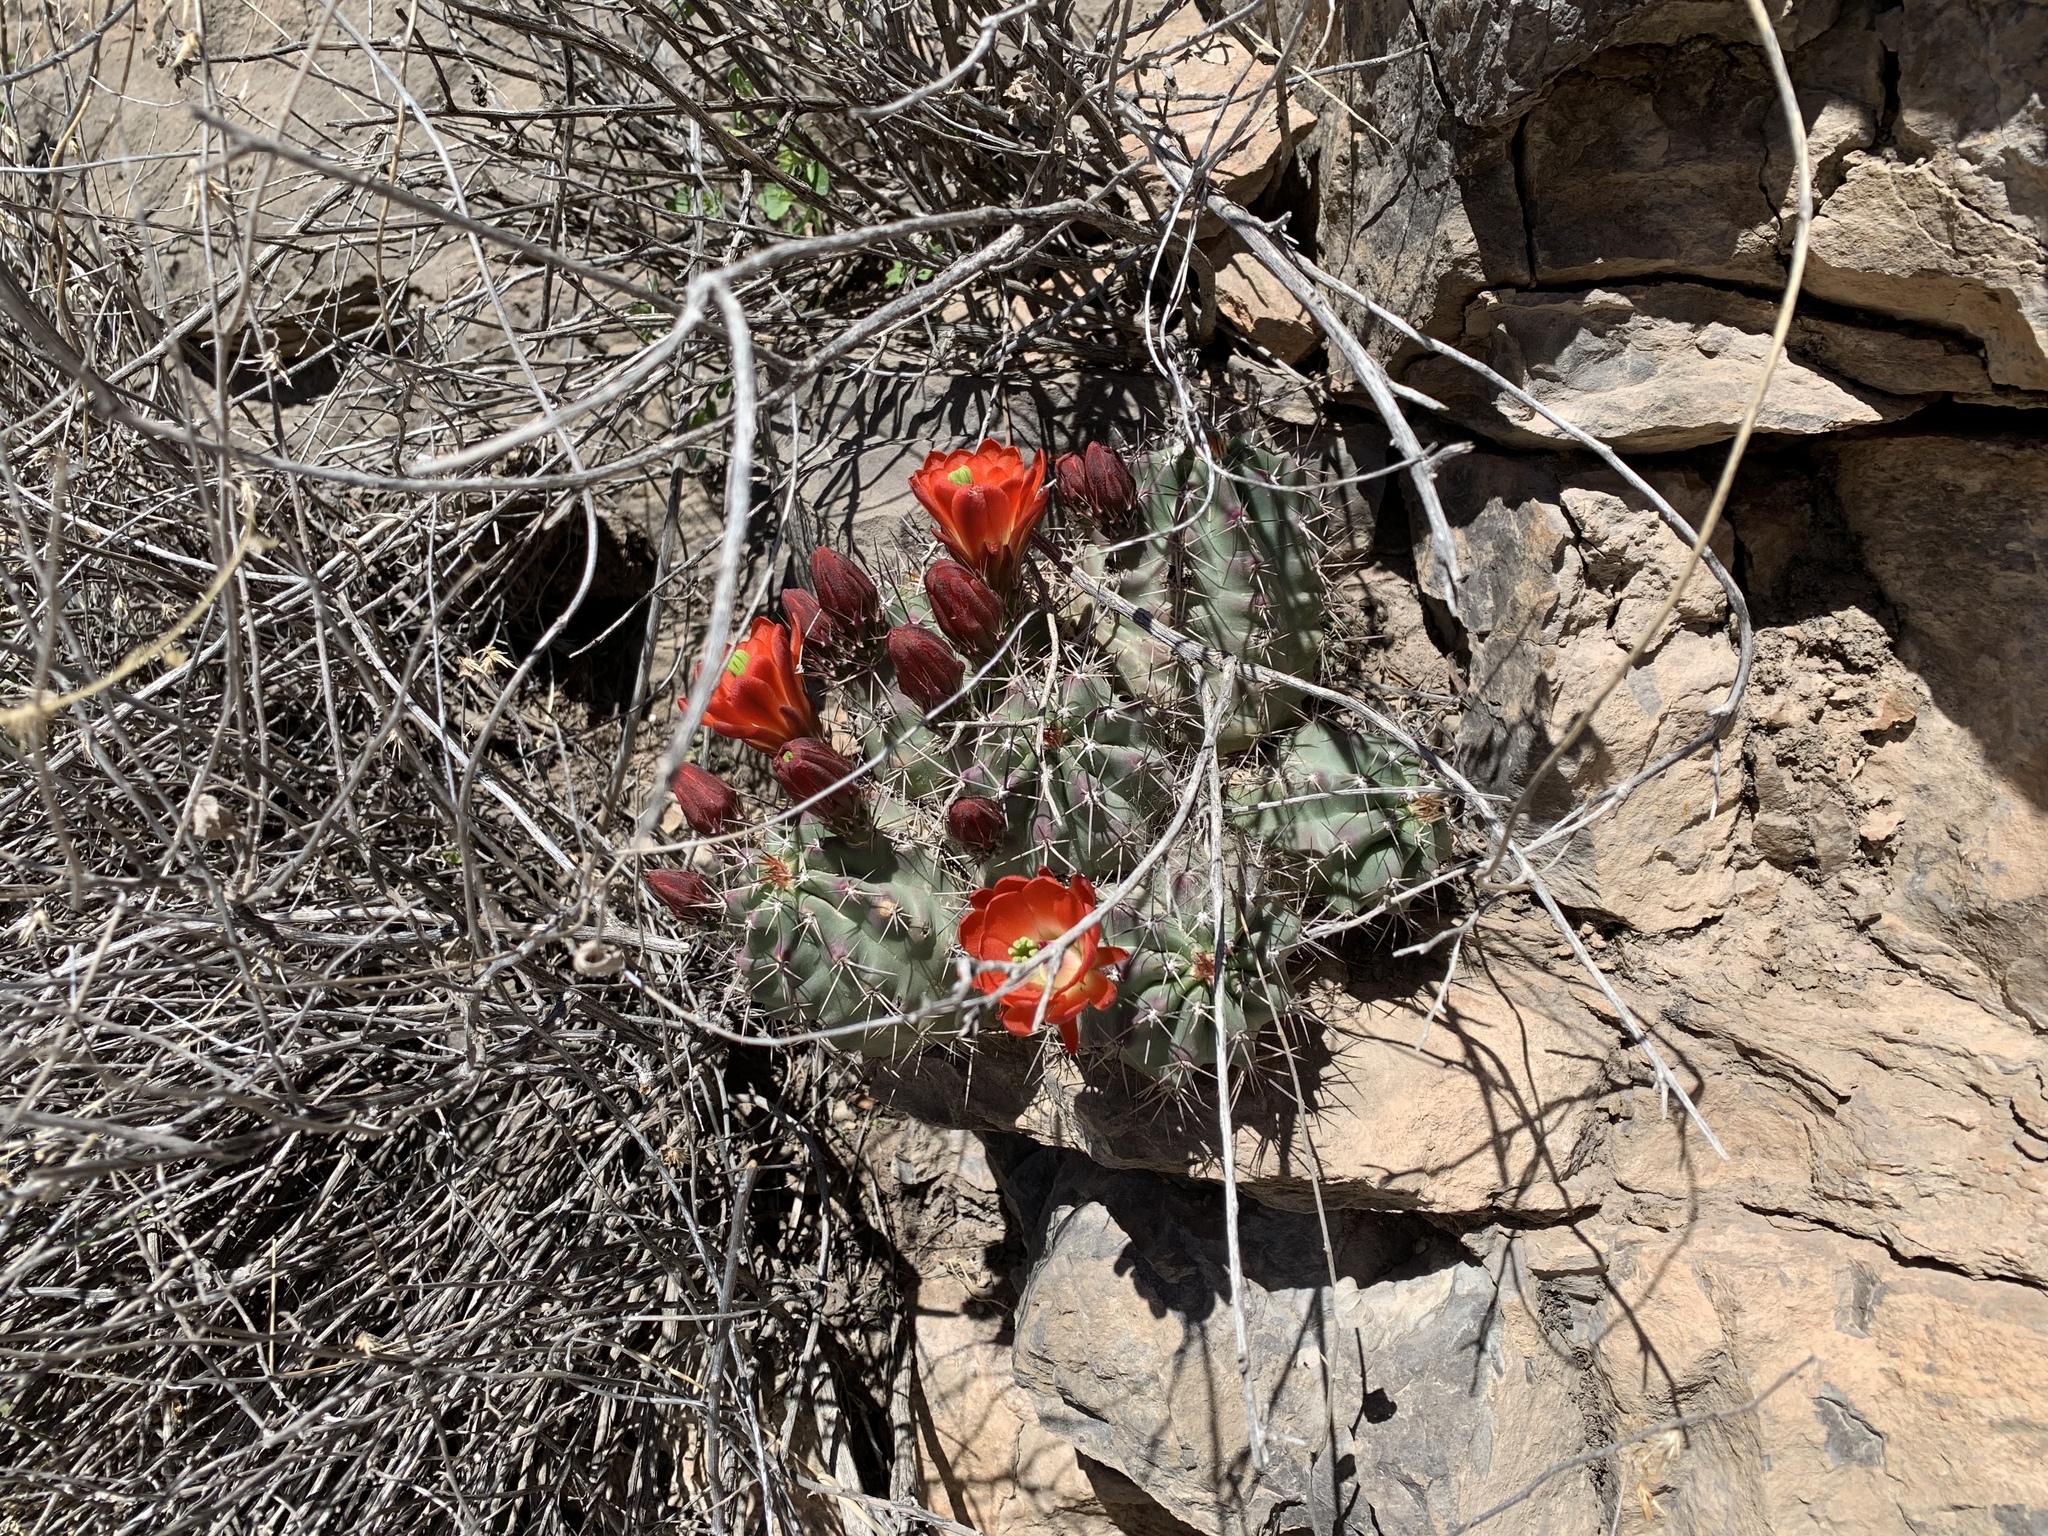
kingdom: Plantae
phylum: Tracheophyta
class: Magnoliopsida
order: Caryophyllales
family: Cactaceae
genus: Echinocereus
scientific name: Echinocereus coccineus
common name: Scarlet hedgehog cactus
